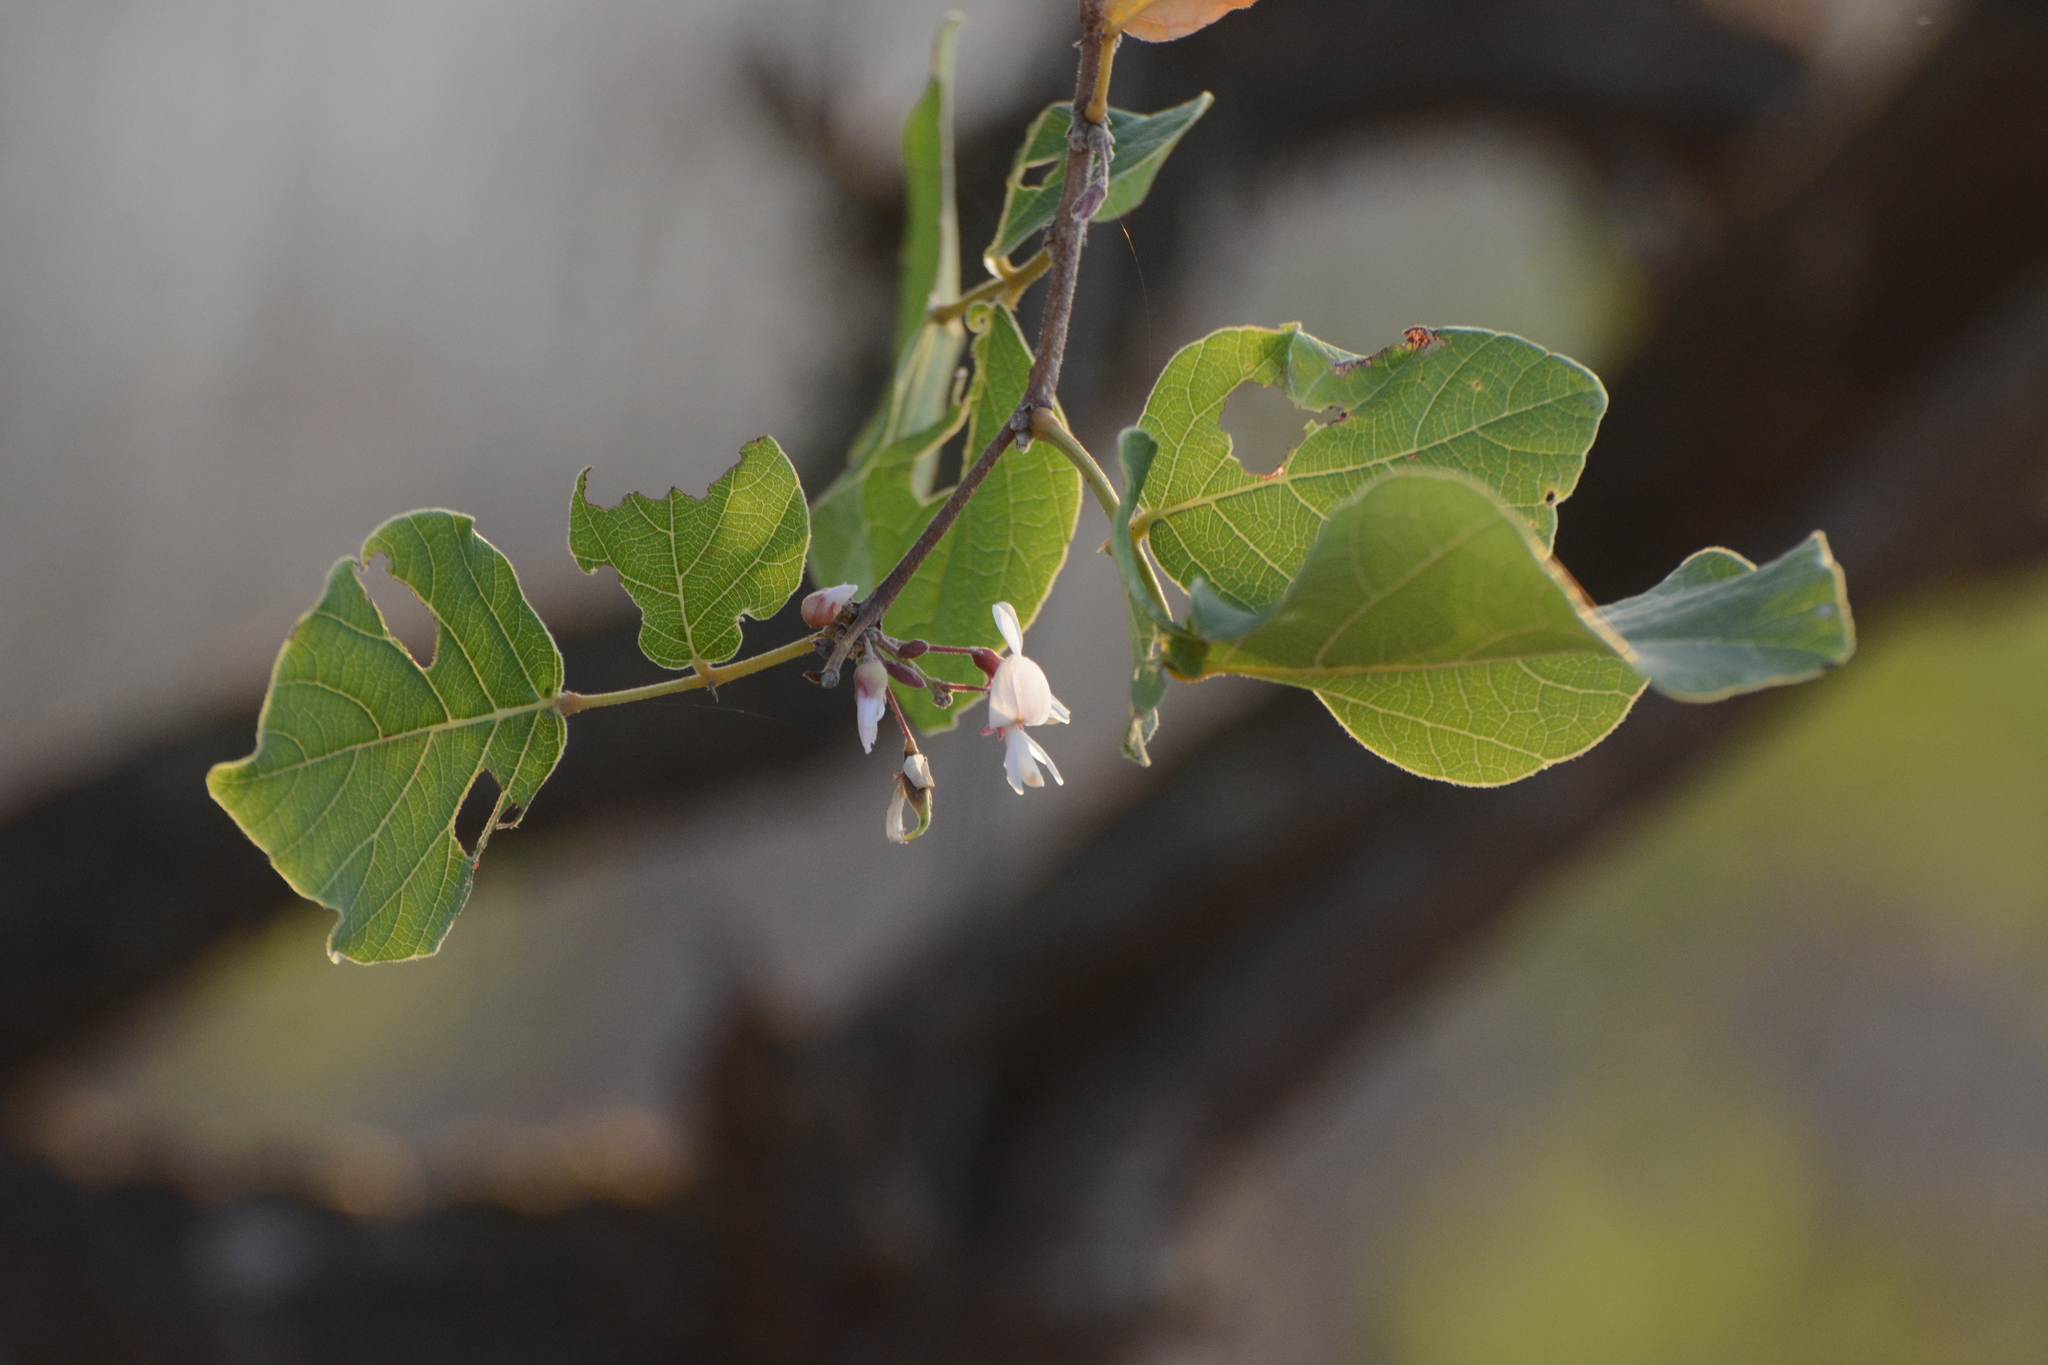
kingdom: Plantae
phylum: Tracheophyta
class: Magnoliopsida
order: Fabales
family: Fabaceae
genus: Ougeinia
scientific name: Ougeinia oojeinensis
